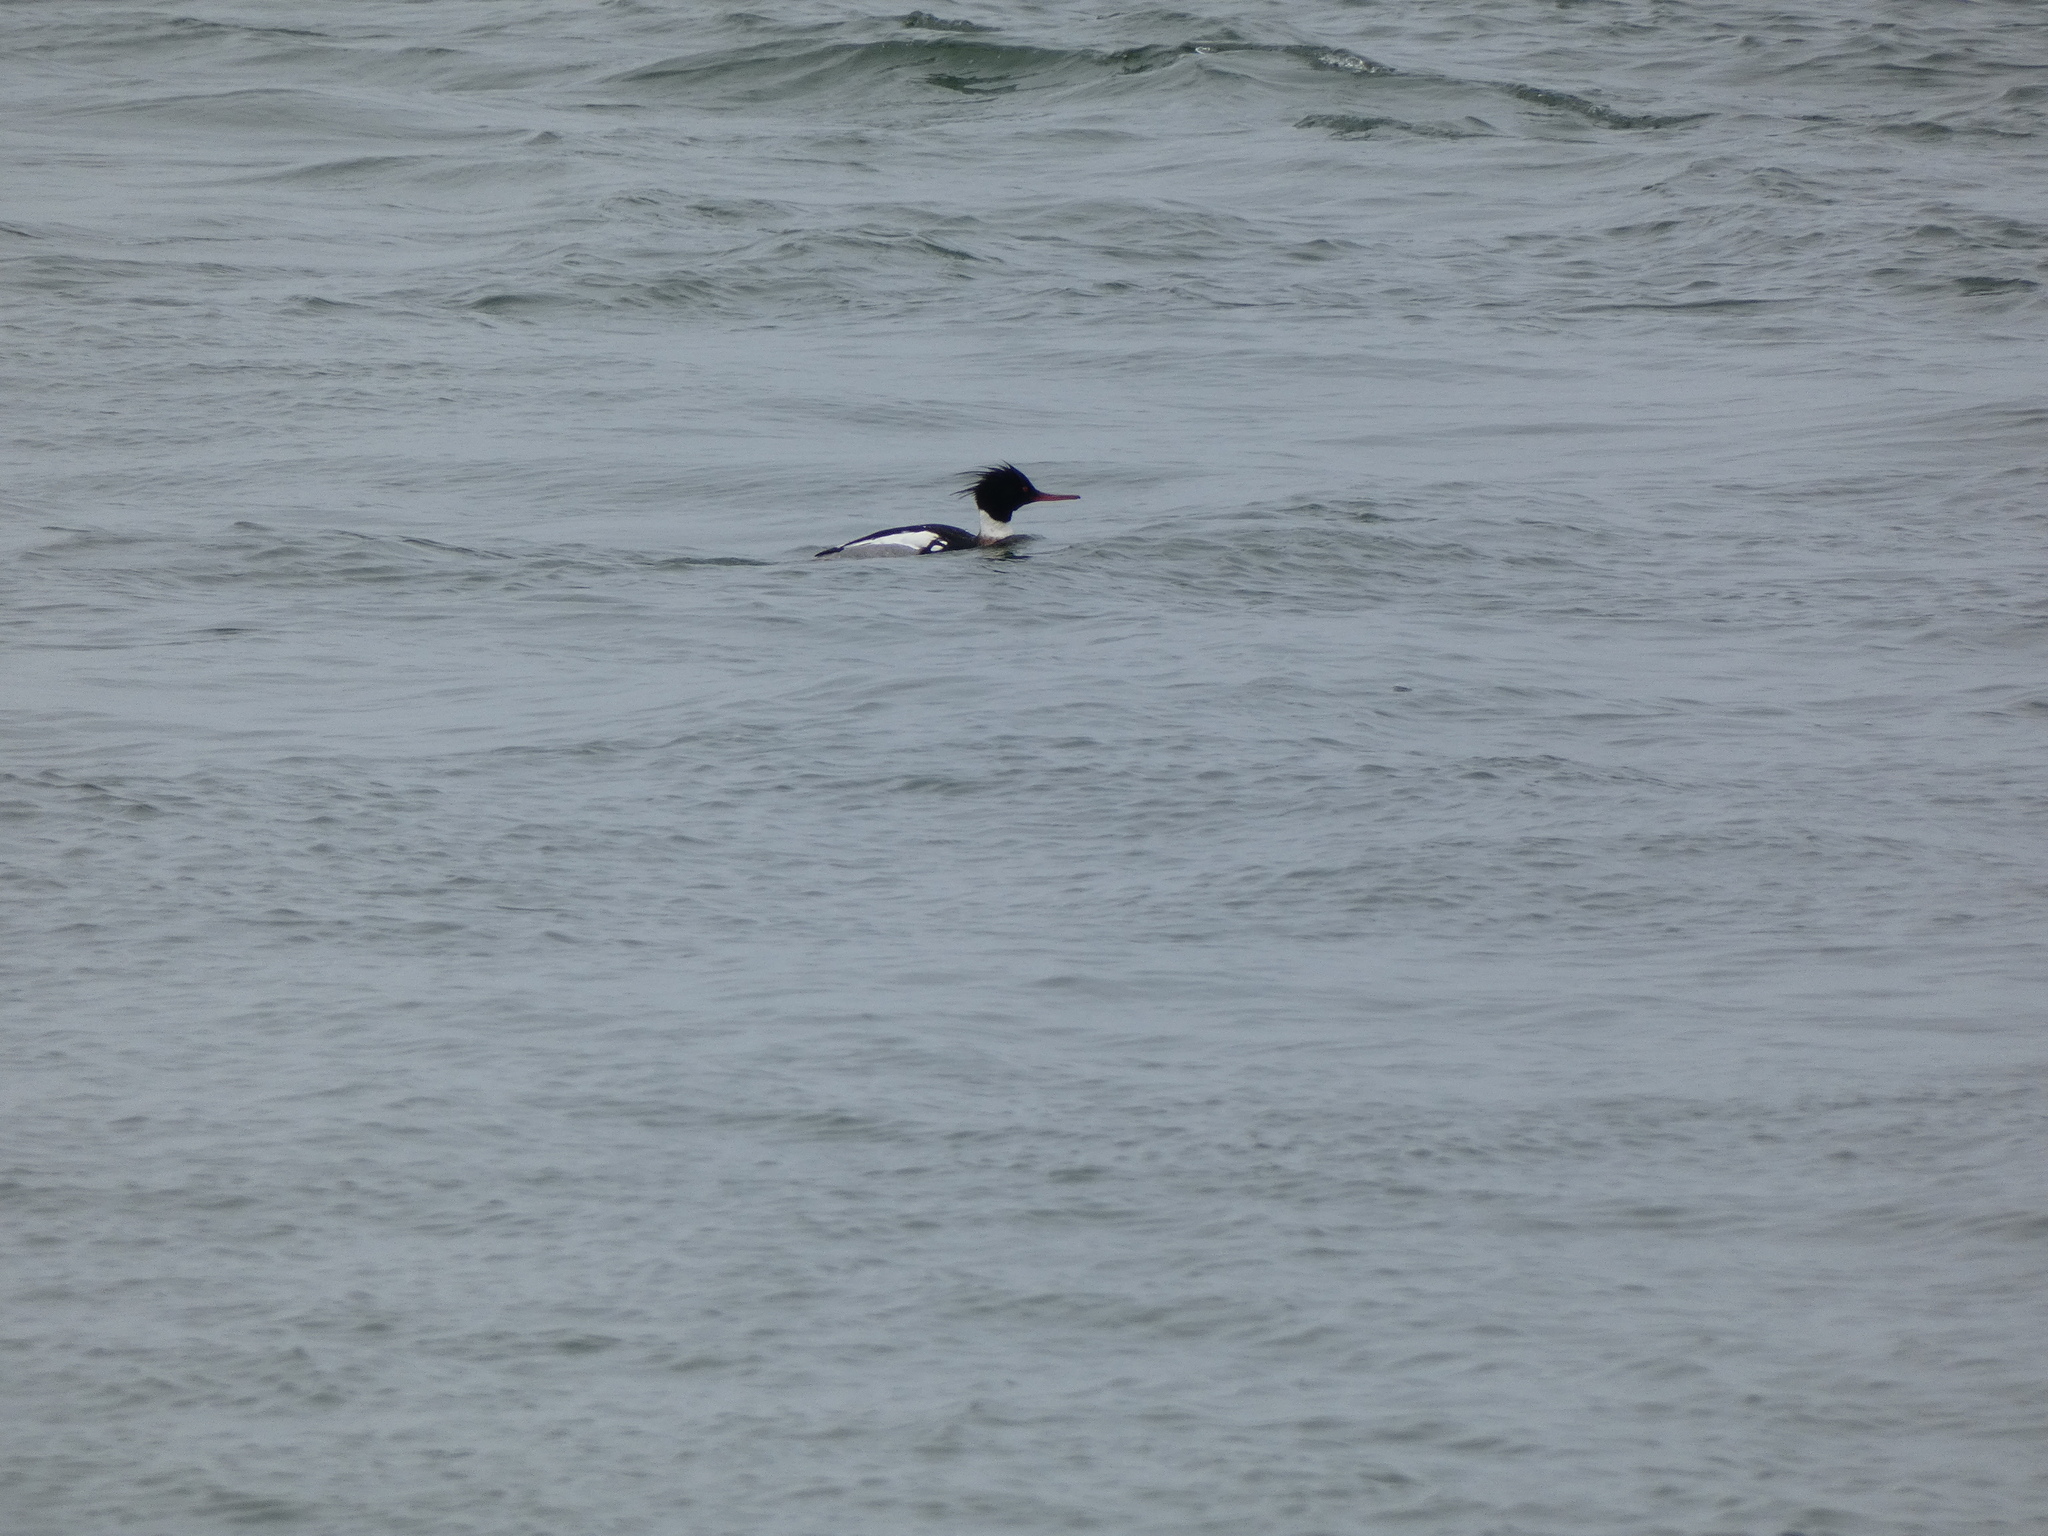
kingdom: Animalia
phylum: Chordata
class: Aves
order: Anseriformes
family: Anatidae
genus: Mergus
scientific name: Mergus serrator
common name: Red-breasted merganser
